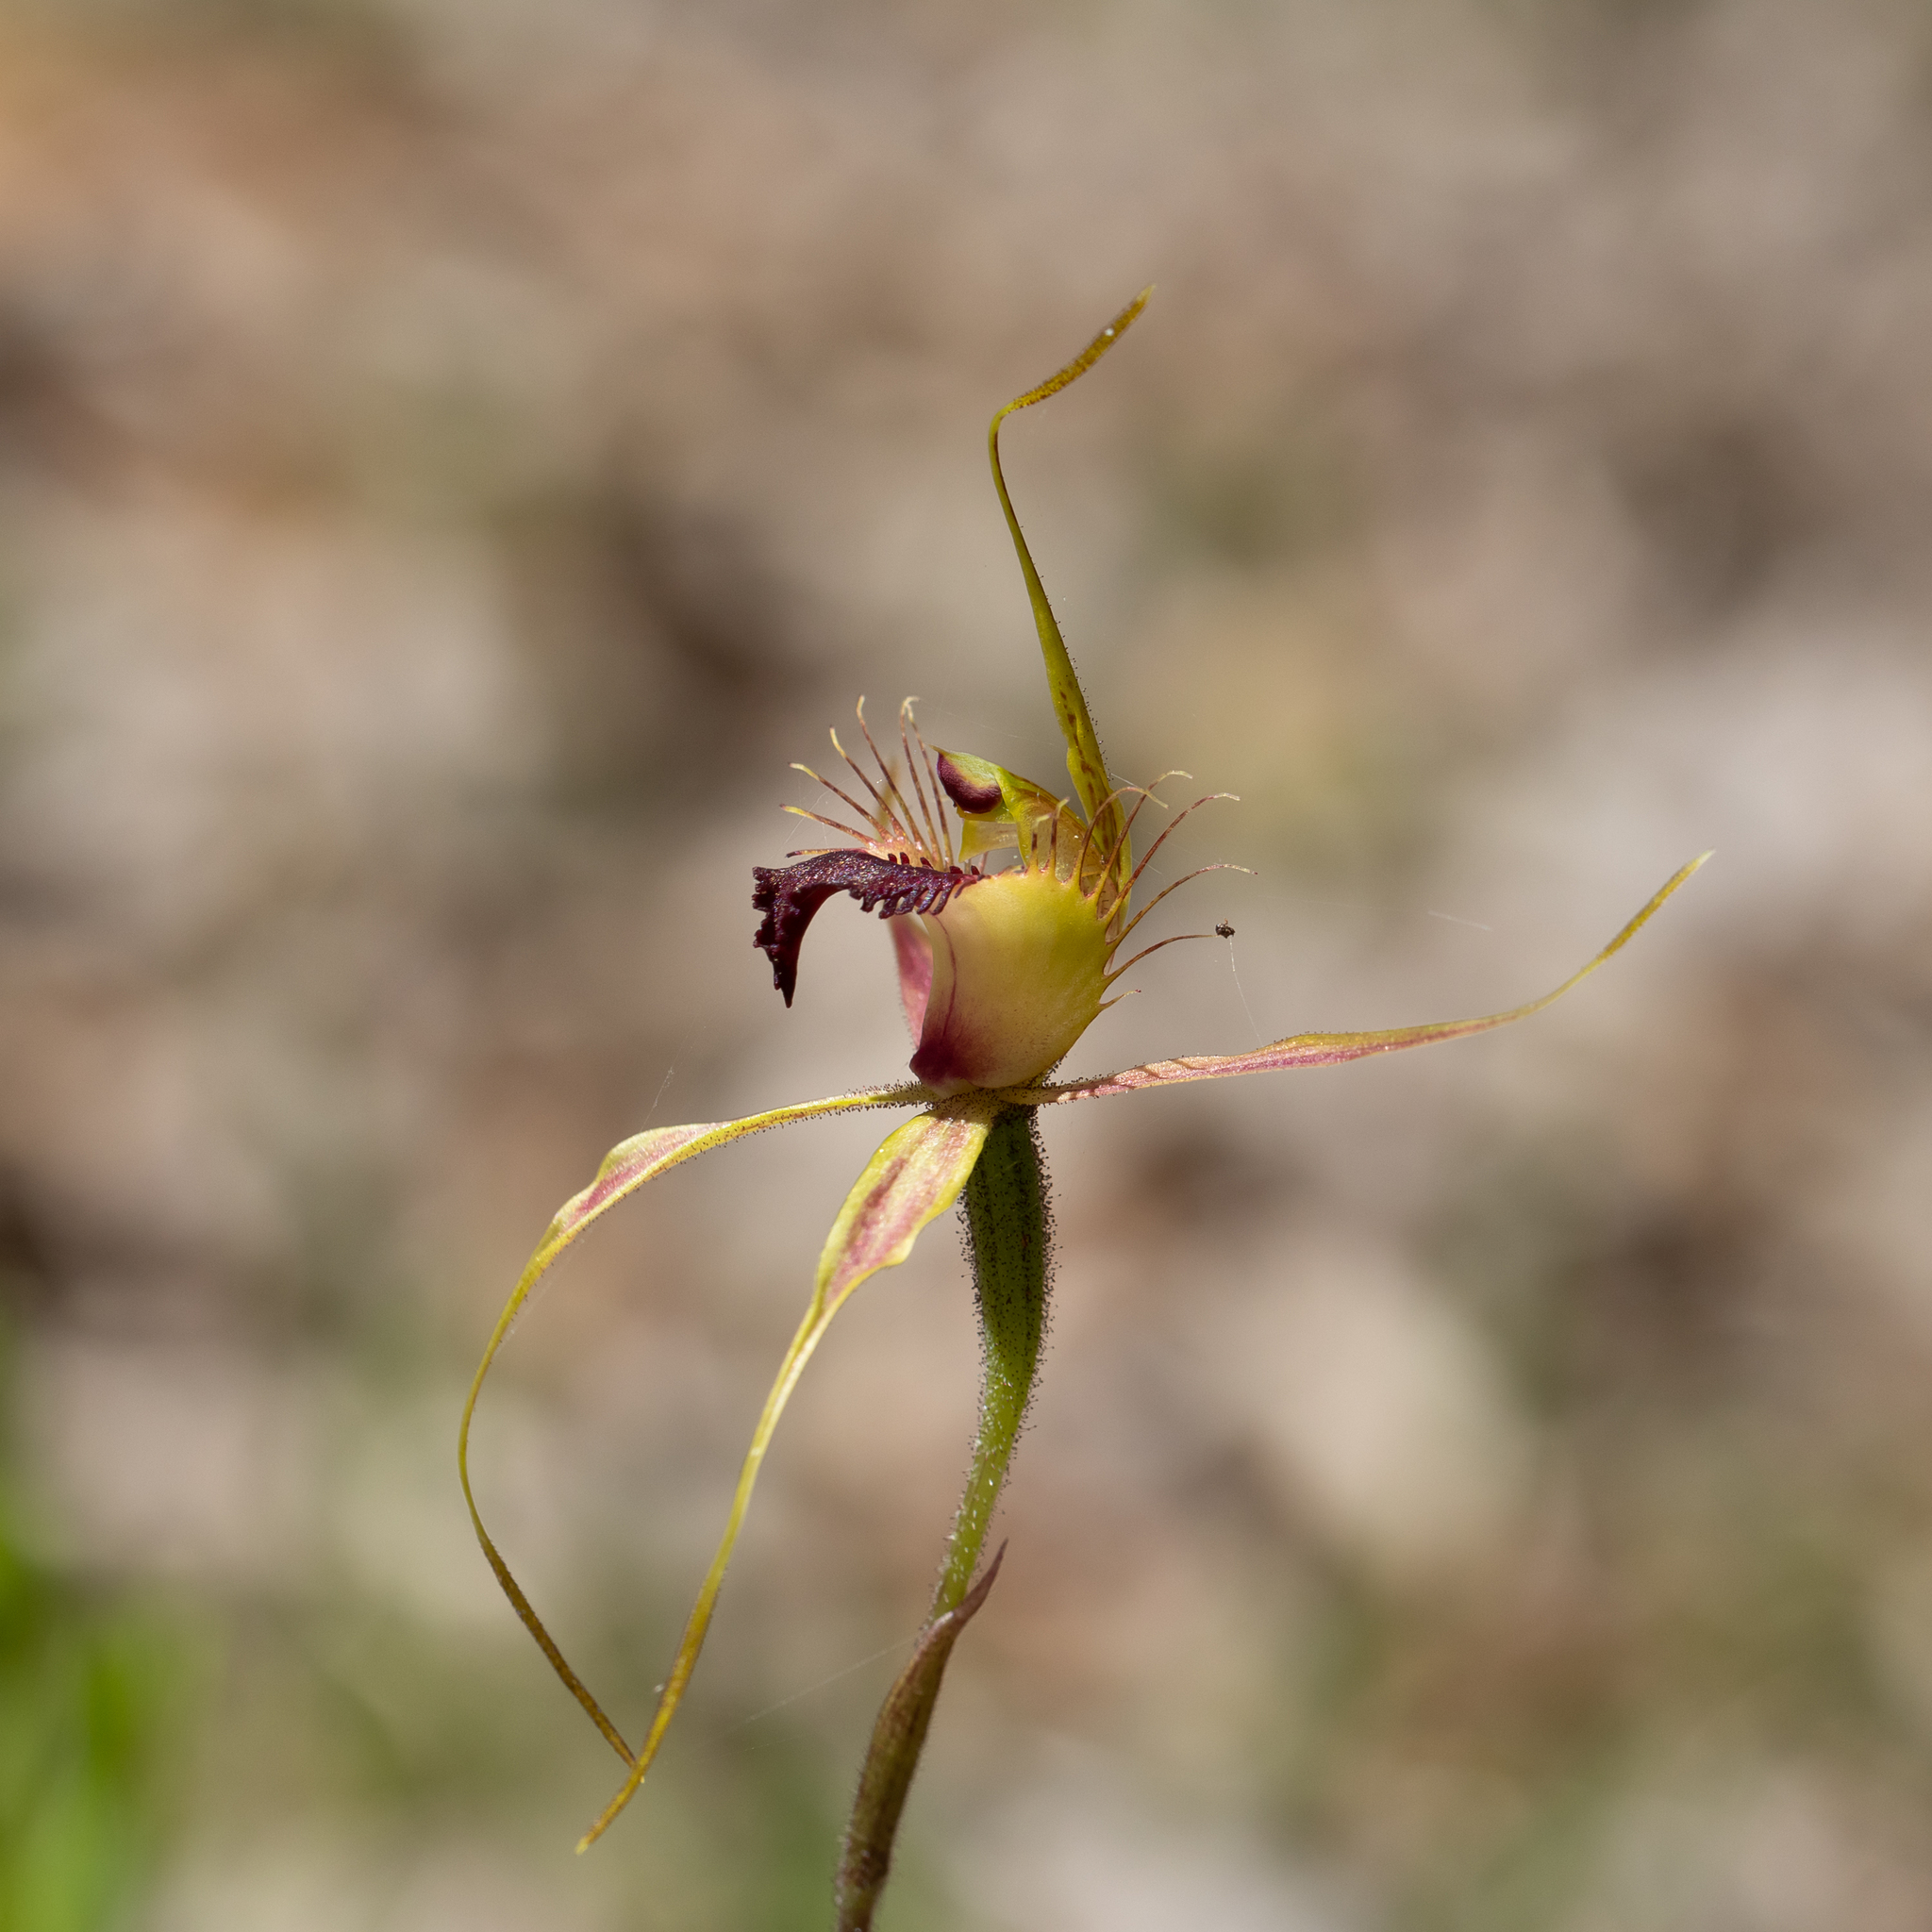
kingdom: Plantae
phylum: Tracheophyta
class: Liliopsida
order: Asparagales
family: Orchidaceae
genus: Caladenia
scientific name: Caladenia brownii
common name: Kari spider orchid
